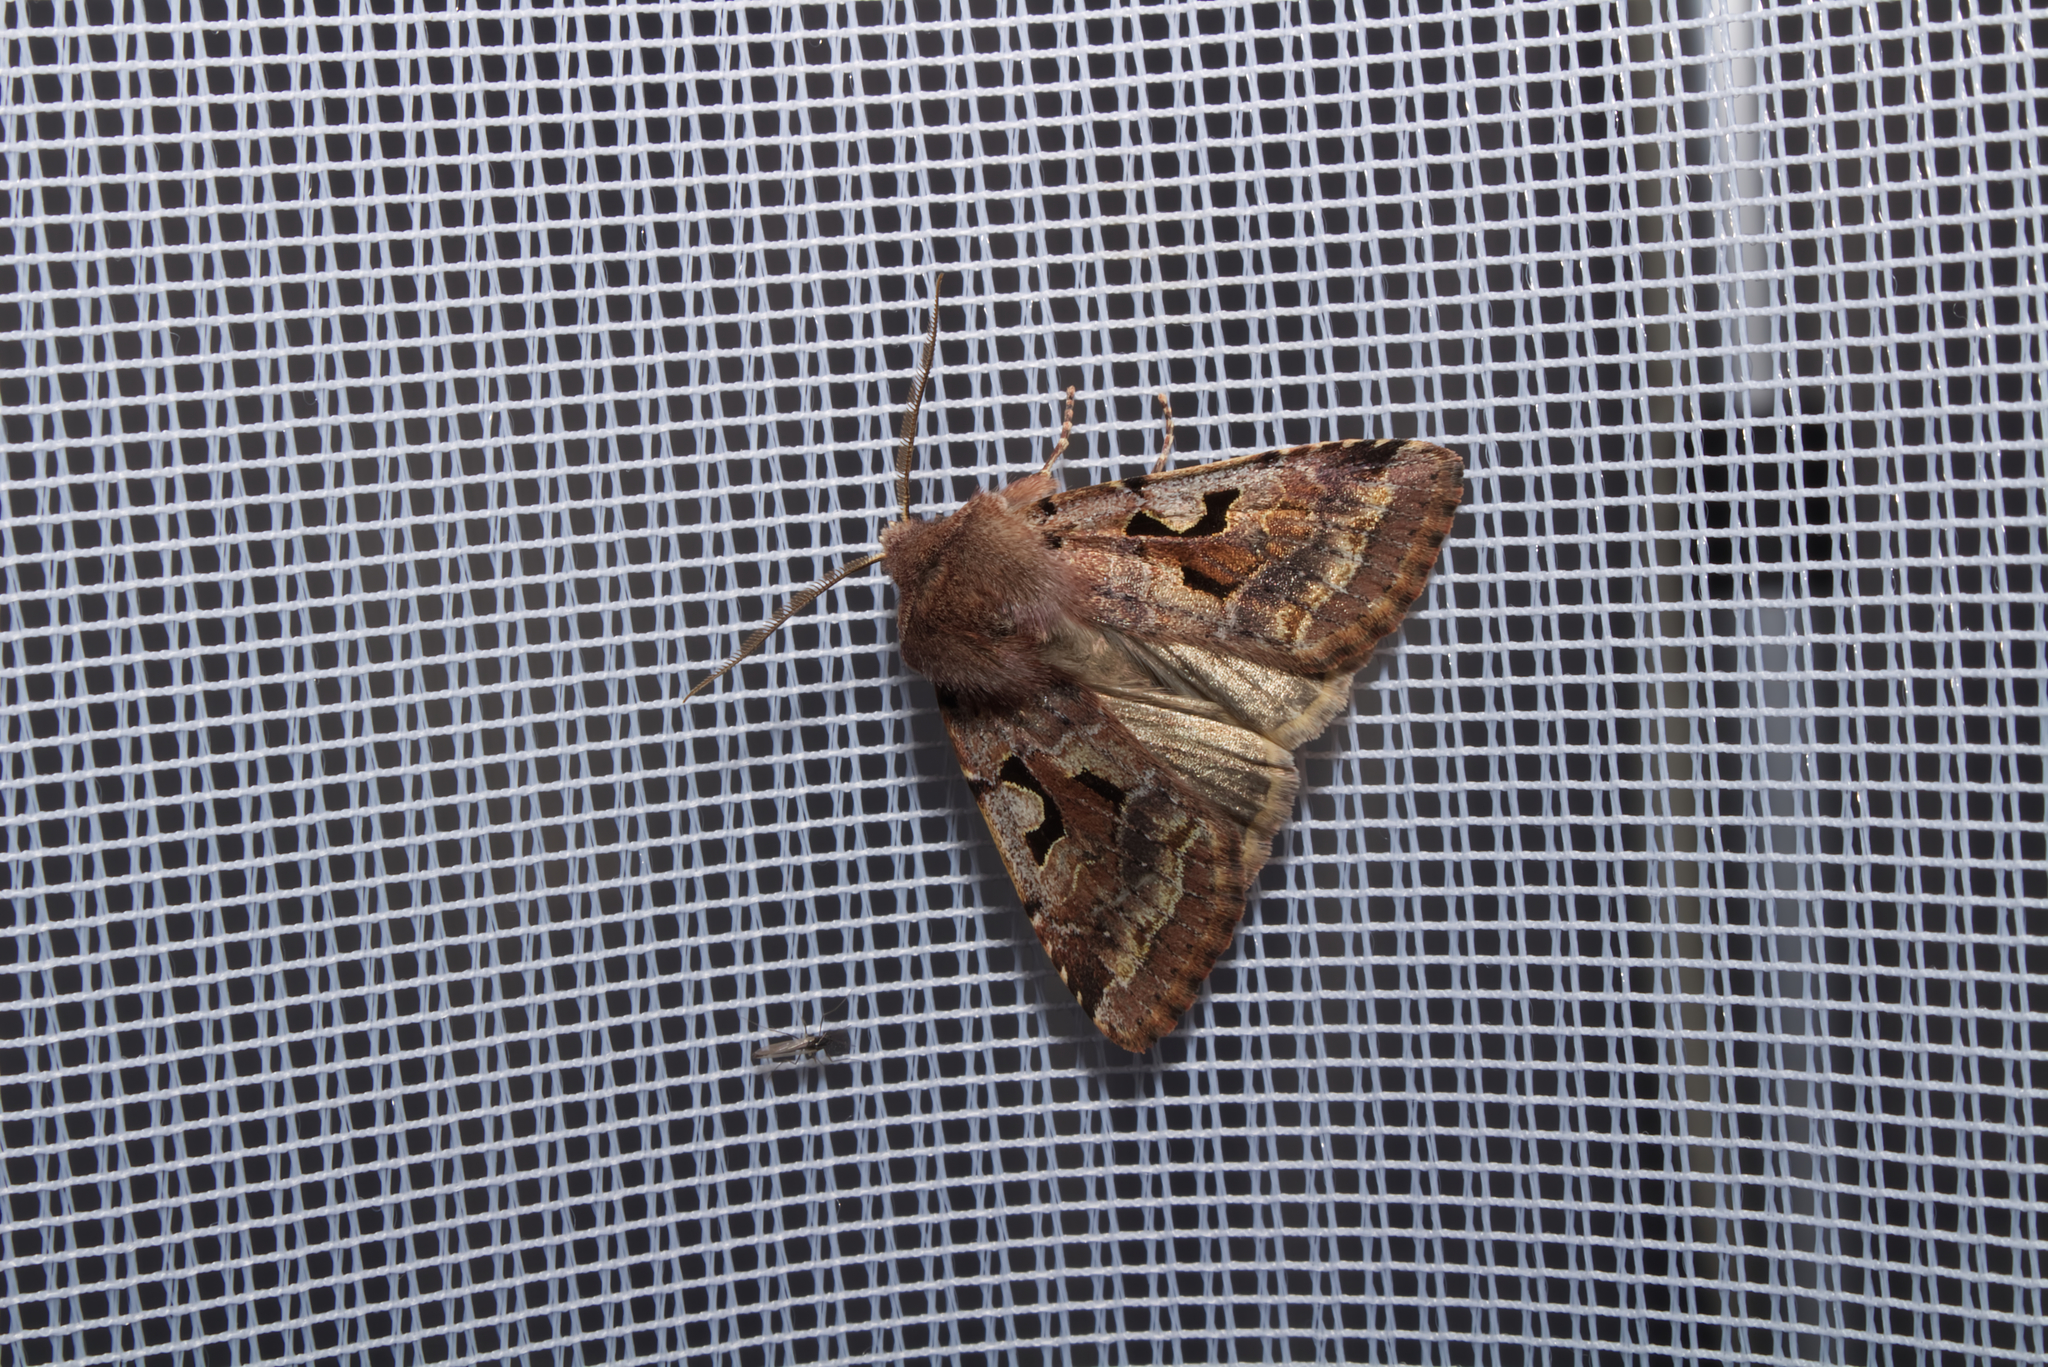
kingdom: Animalia
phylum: Arthropoda
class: Insecta
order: Lepidoptera
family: Noctuidae
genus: Orthosia
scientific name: Orthosia gothica
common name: Hebrew character
